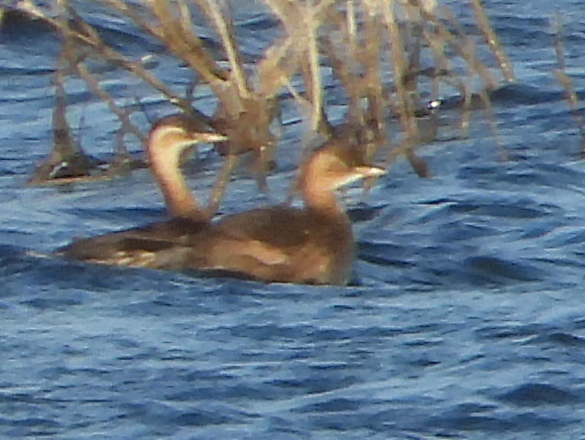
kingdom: Animalia
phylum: Chordata
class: Aves
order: Podicipediformes
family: Podicipedidae
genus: Tachybaptus
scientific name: Tachybaptus ruficollis
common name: Little grebe
